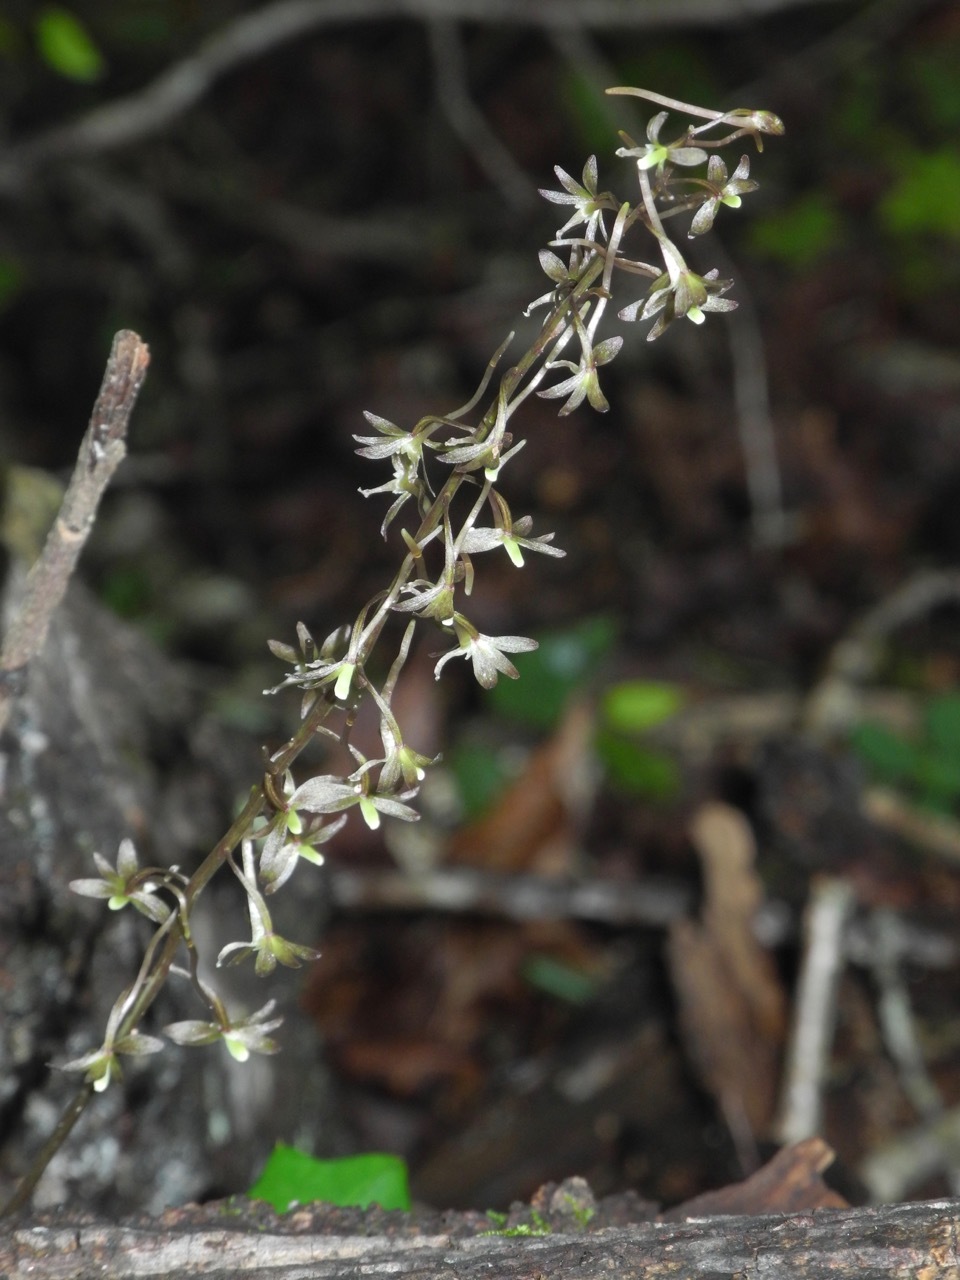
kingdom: Plantae
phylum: Tracheophyta
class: Liliopsida
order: Asparagales
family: Orchidaceae
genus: Tipularia
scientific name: Tipularia discolor
